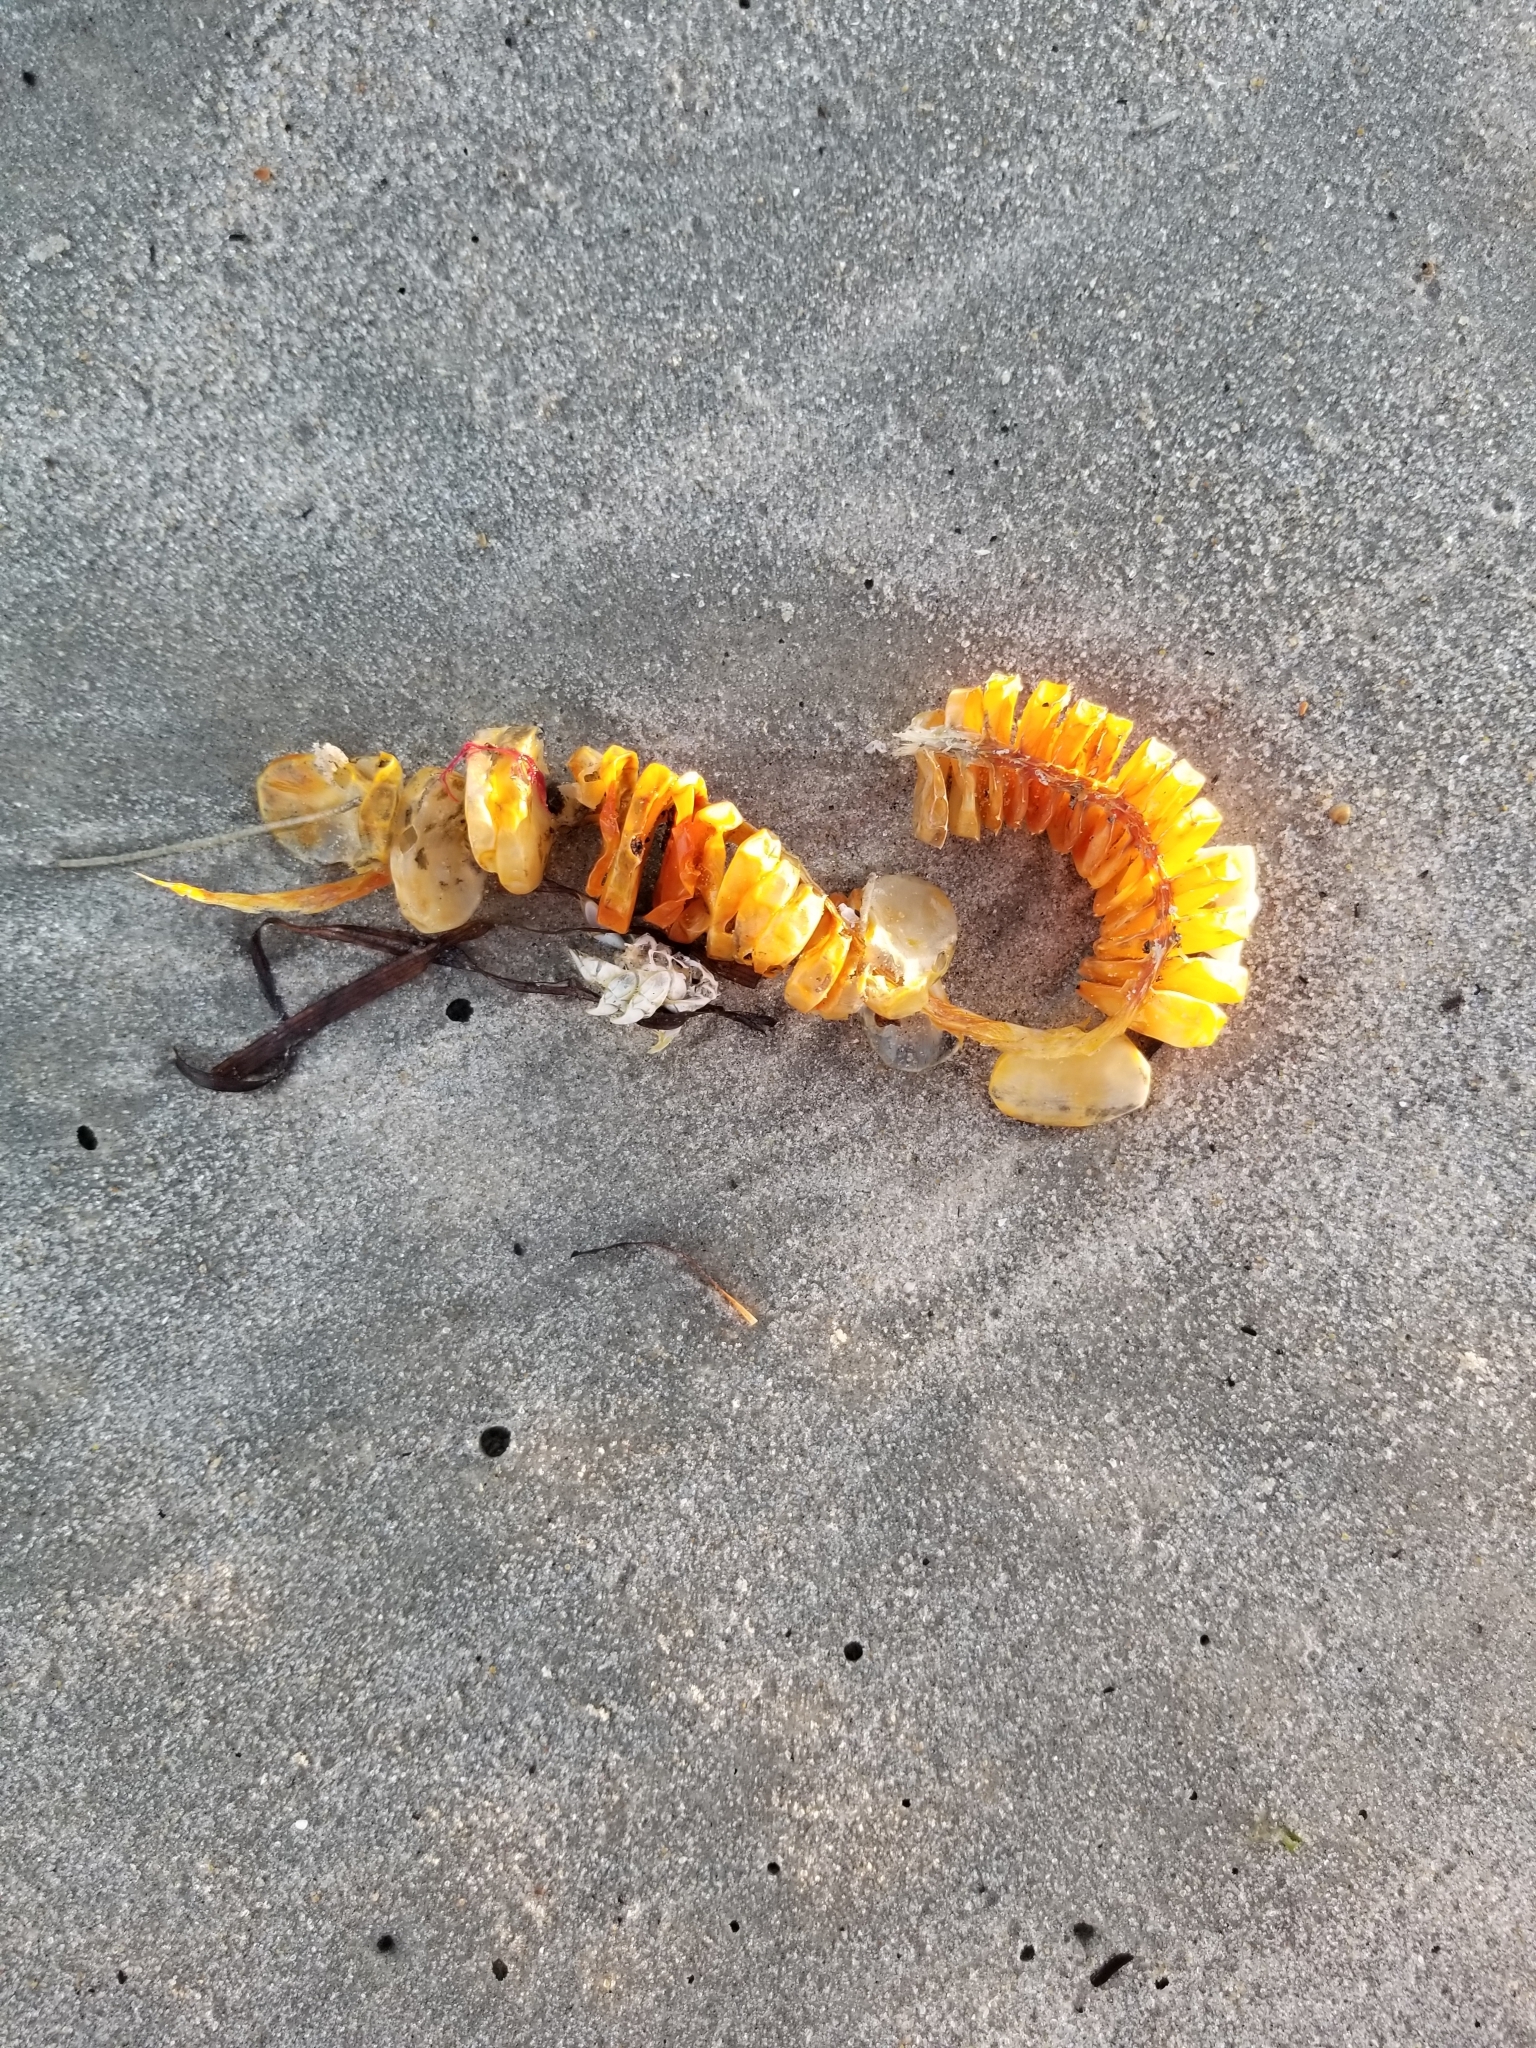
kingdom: Animalia
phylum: Mollusca
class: Gastropoda
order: Neogastropoda
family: Busyconidae
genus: Busycon
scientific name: Busycon carica
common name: Knobbed whelk
